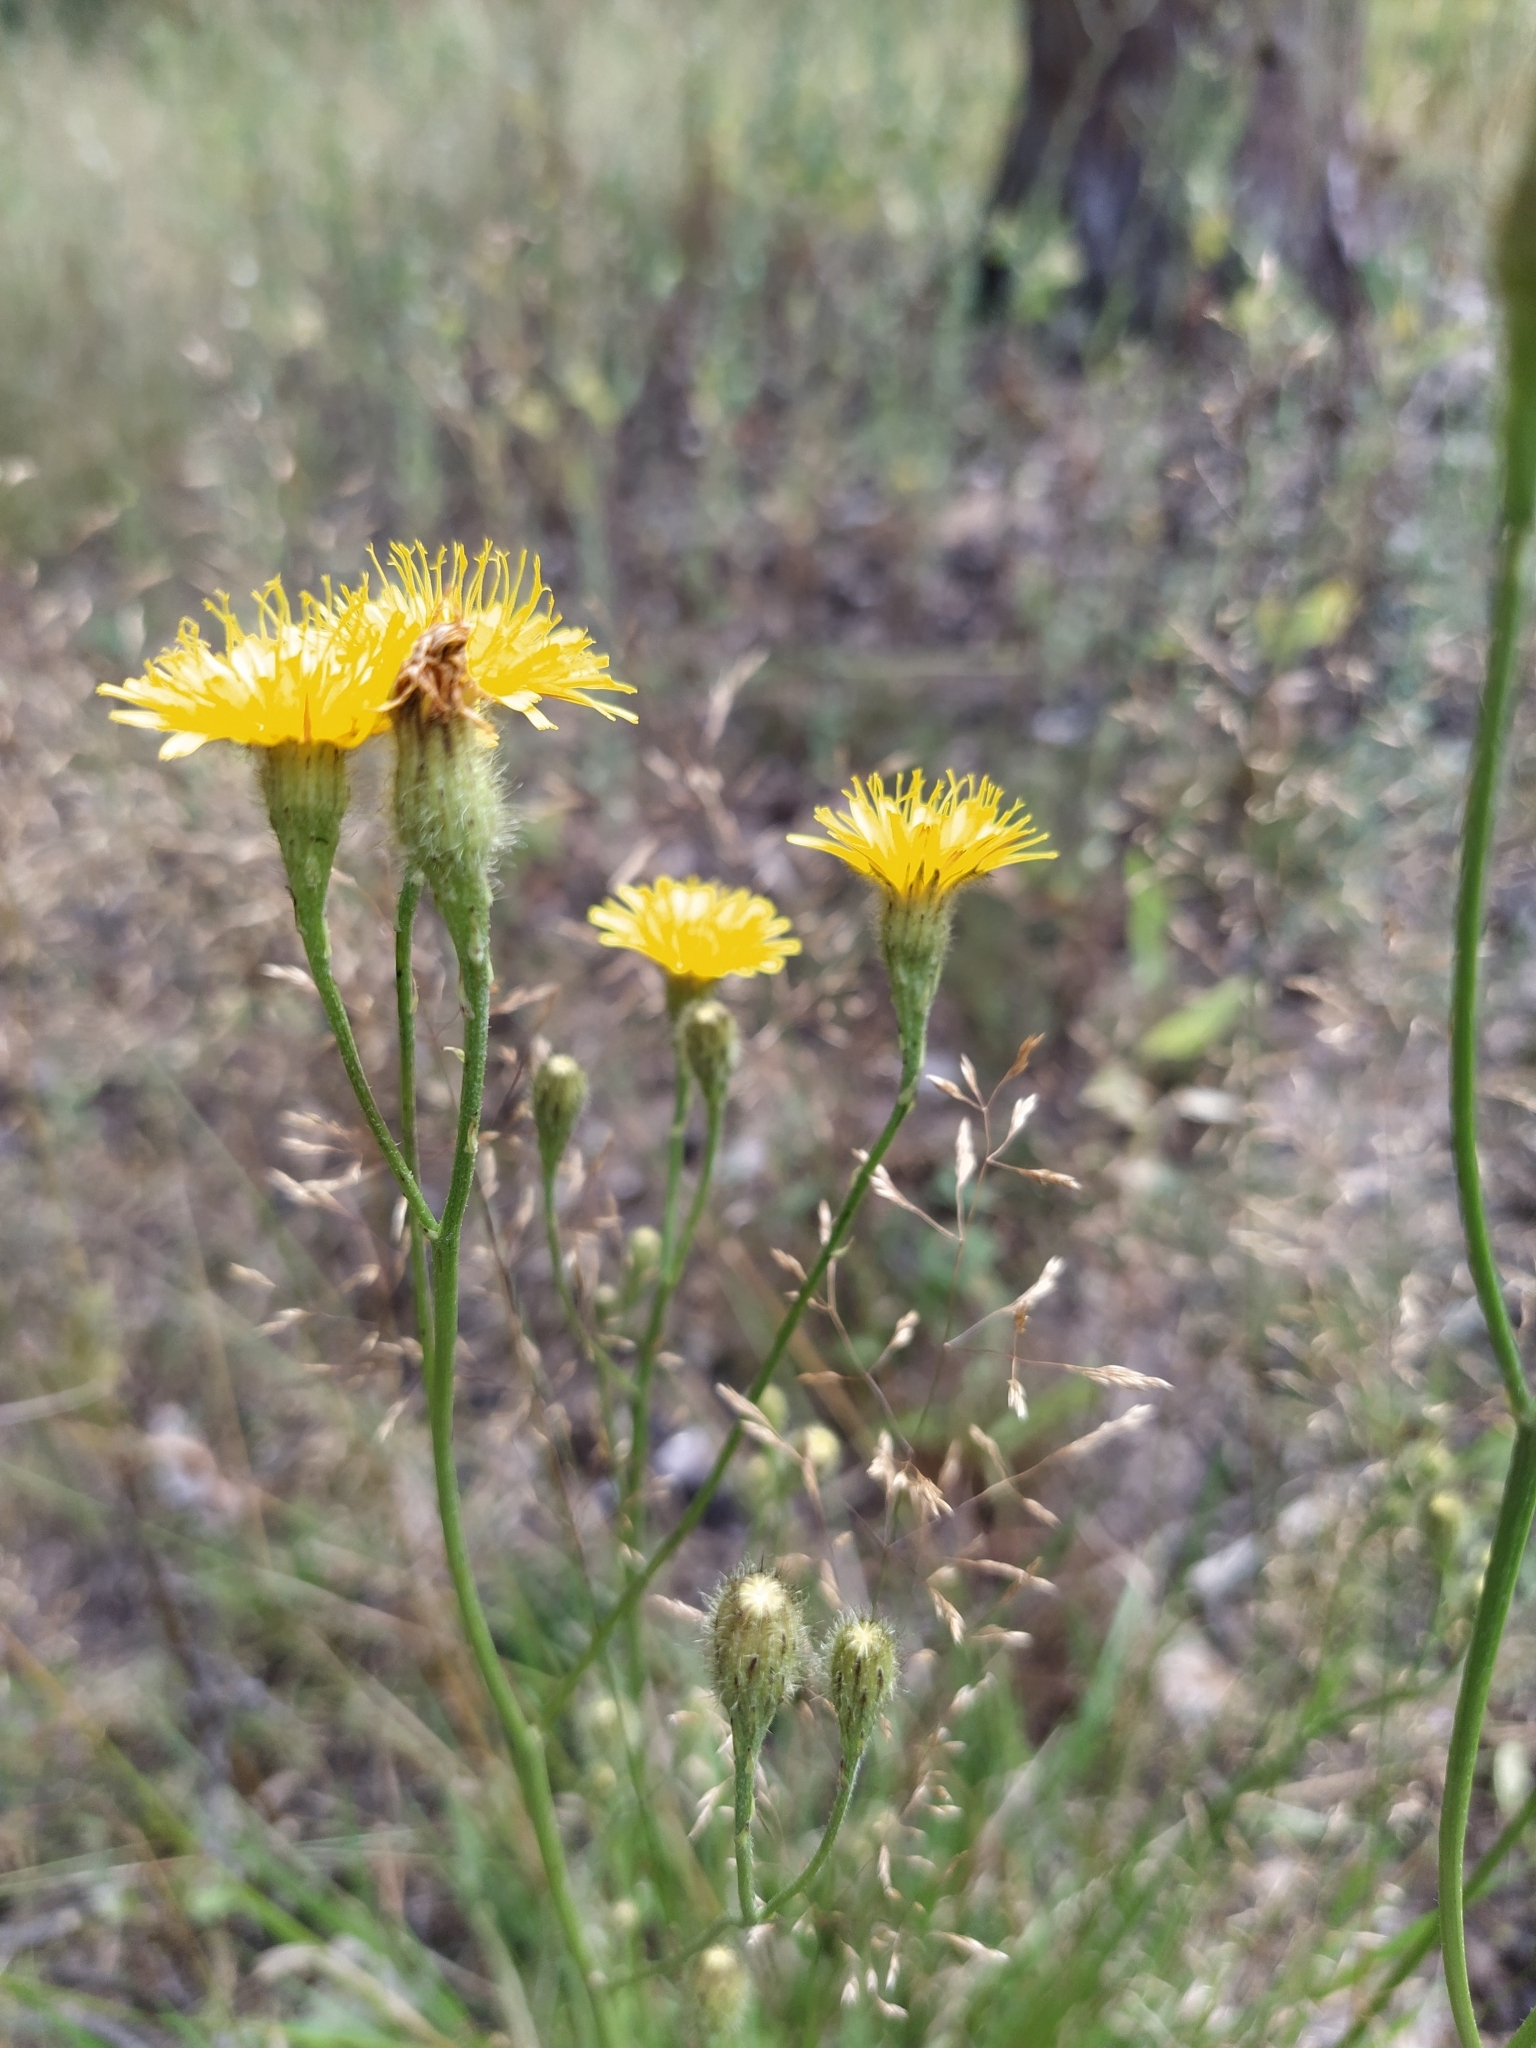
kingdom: Plantae
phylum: Tracheophyta
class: Magnoliopsida
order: Asterales
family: Asteraceae
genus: Scorzoneroides
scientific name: Scorzoneroides autumnalis
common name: Autumn hawkbit
